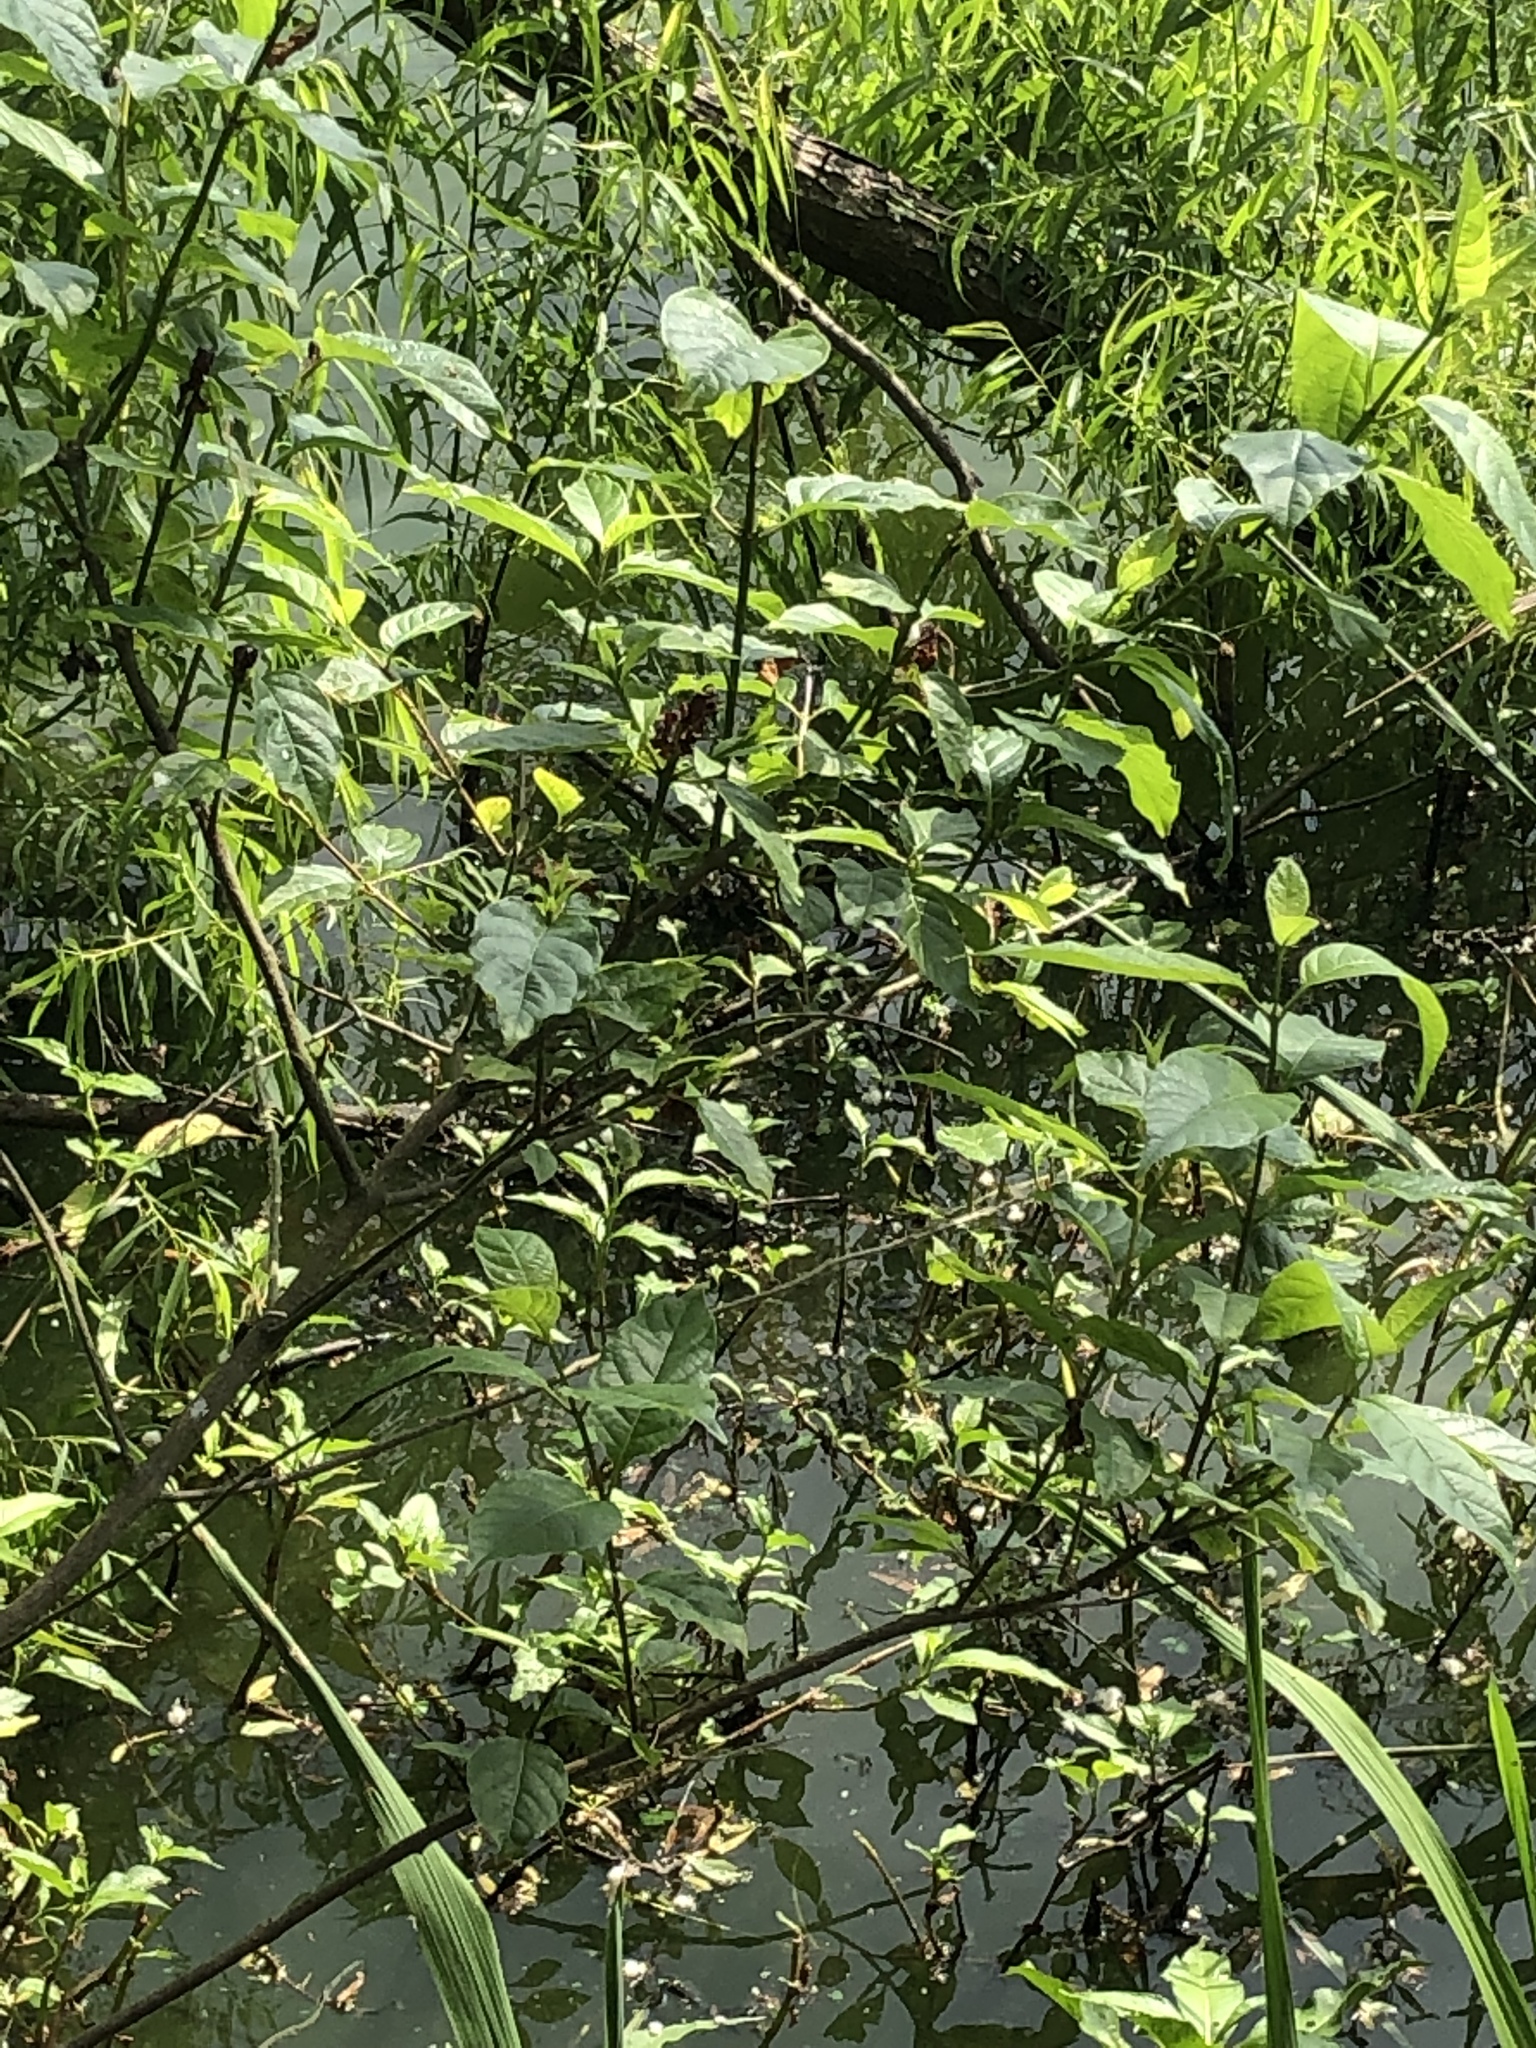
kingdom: Plantae
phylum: Tracheophyta
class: Magnoliopsida
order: Gentianales
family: Rubiaceae
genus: Cephalanthus
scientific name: Cephalanthus occidentalis
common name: Button-willow
